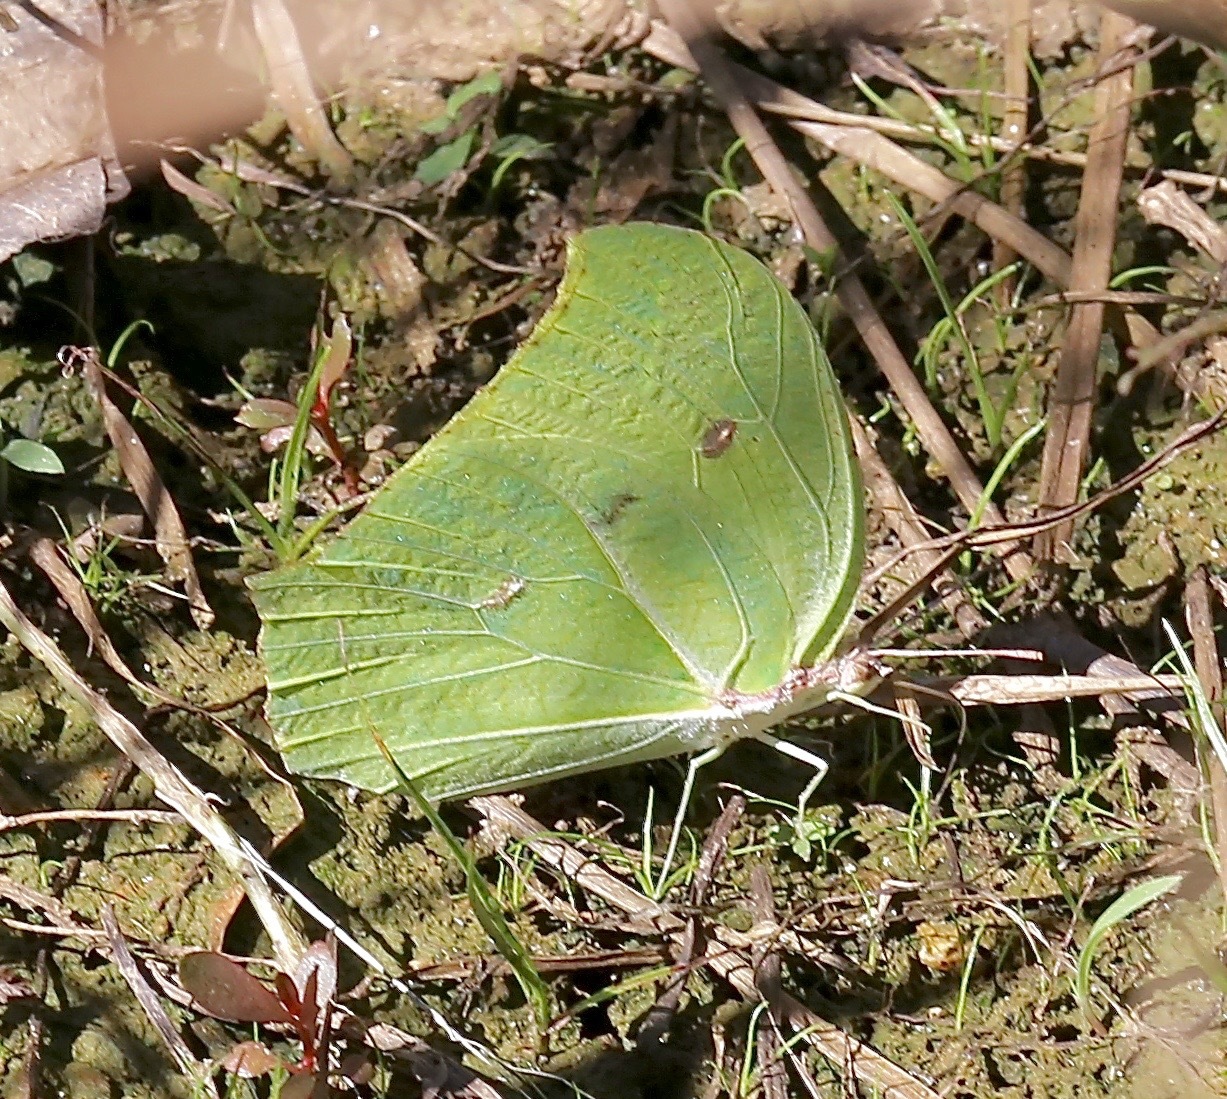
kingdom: Animalia
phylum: Arthropoda
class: Insecta
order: Lepidoptera
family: Pieridae
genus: Anteos
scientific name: Anteos maerula
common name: Angled sulphur
